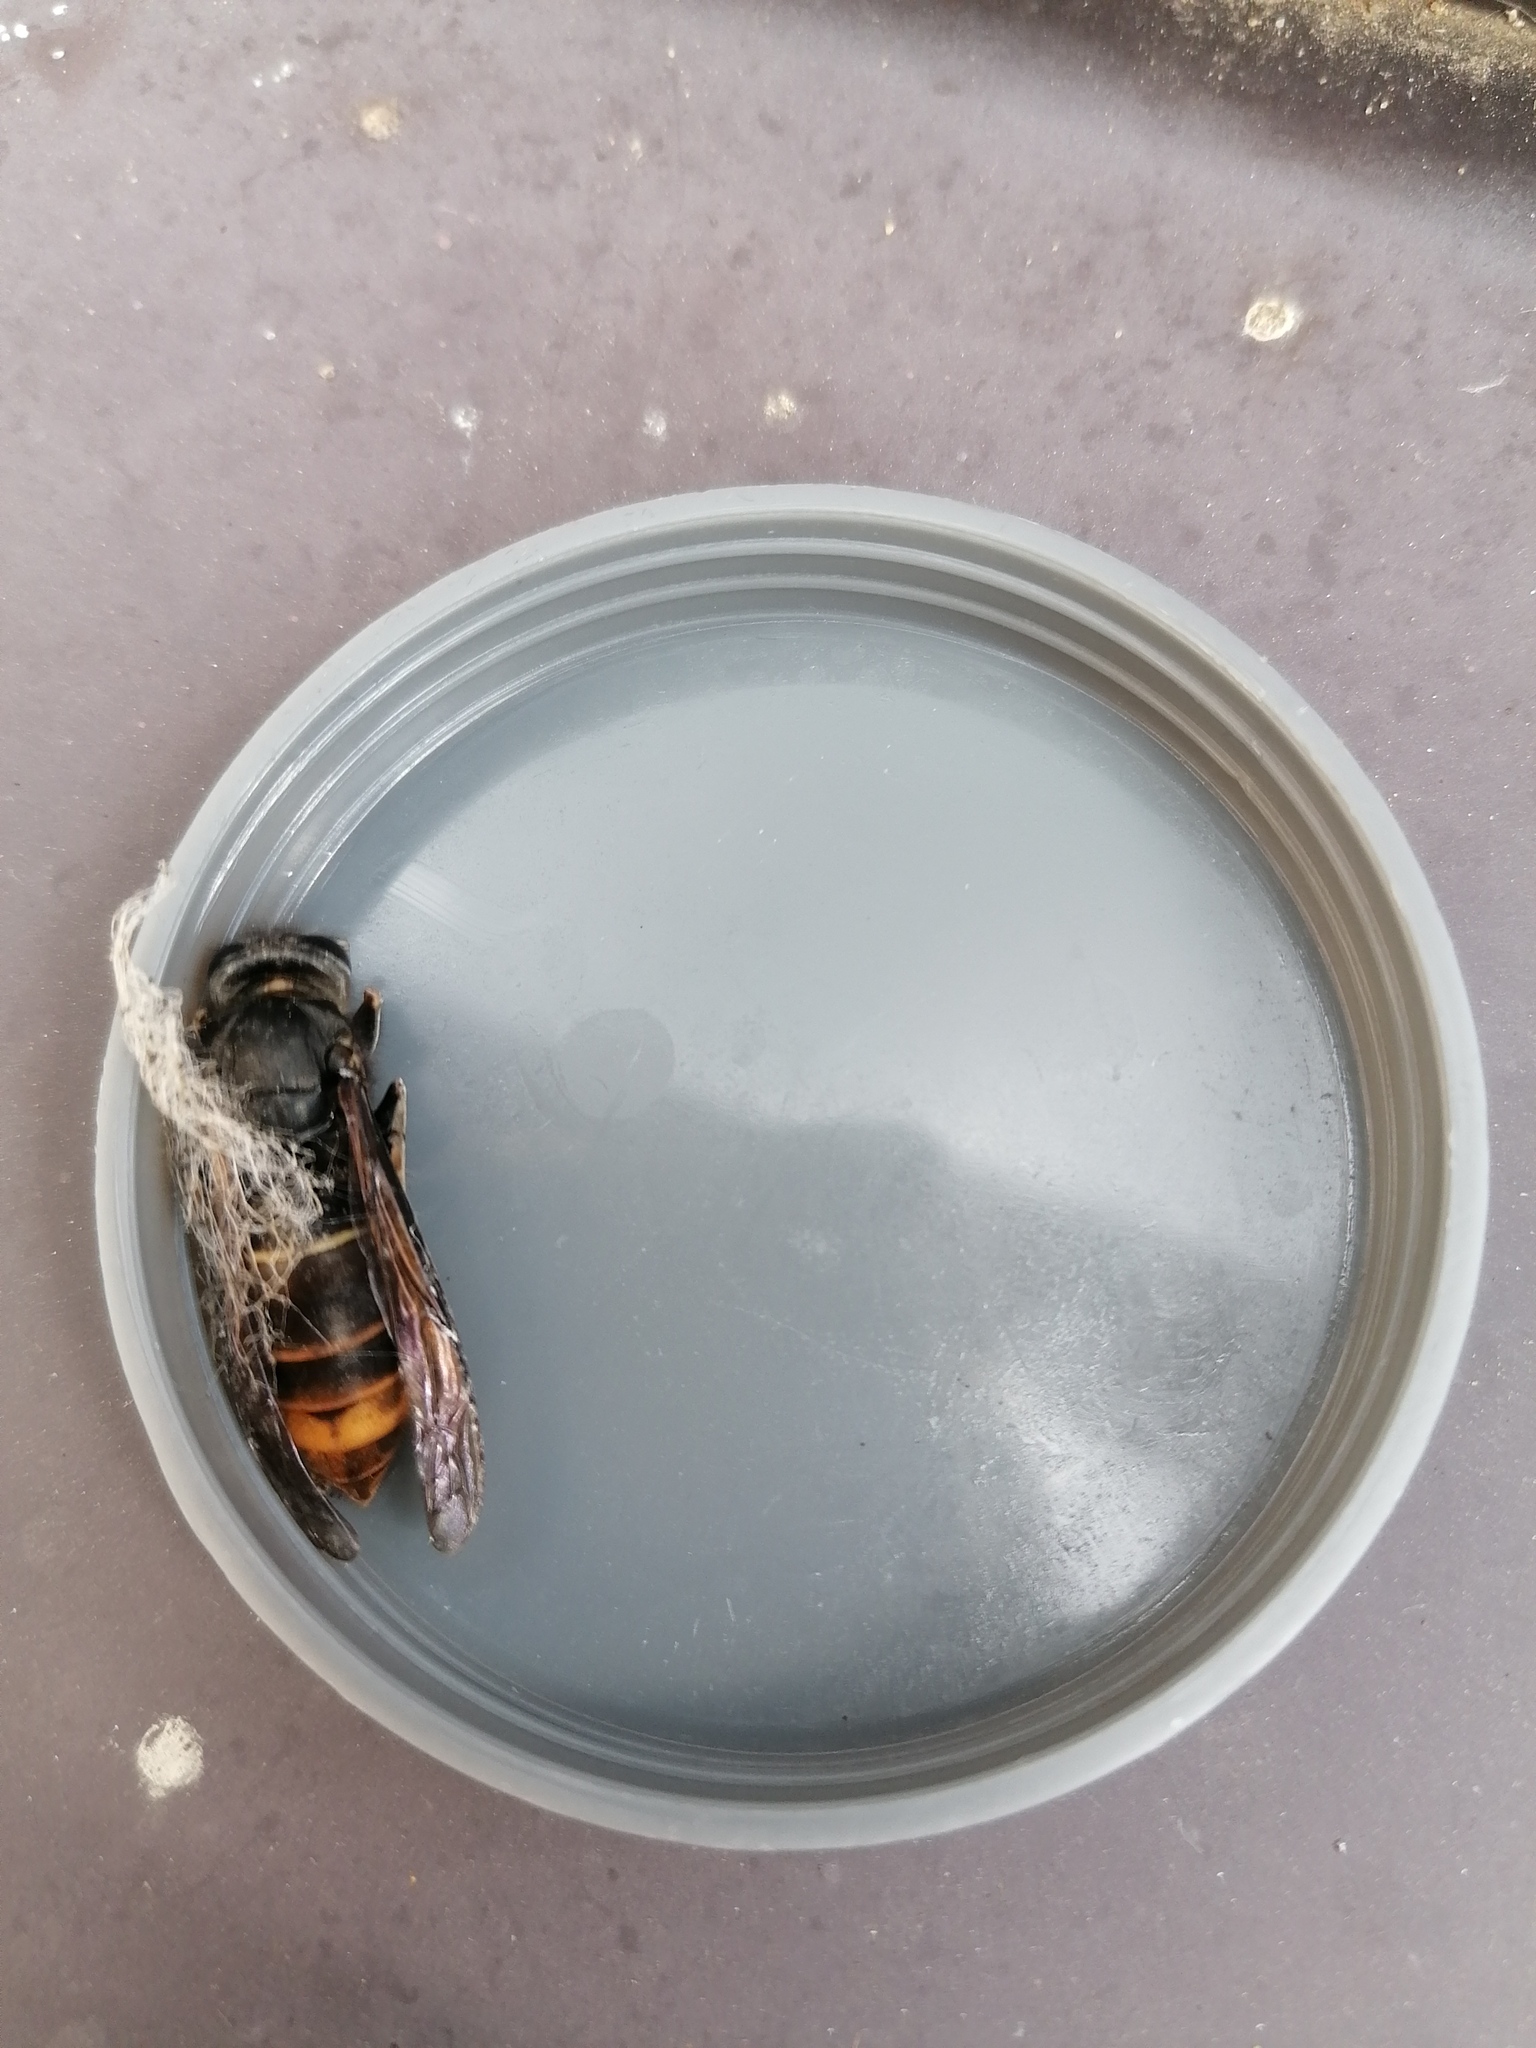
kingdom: Animalia
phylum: Arthropoda
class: Insecta
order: Hymenoptera
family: Vespidae
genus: Vespa
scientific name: Vespa velutina
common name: Asian hornet
